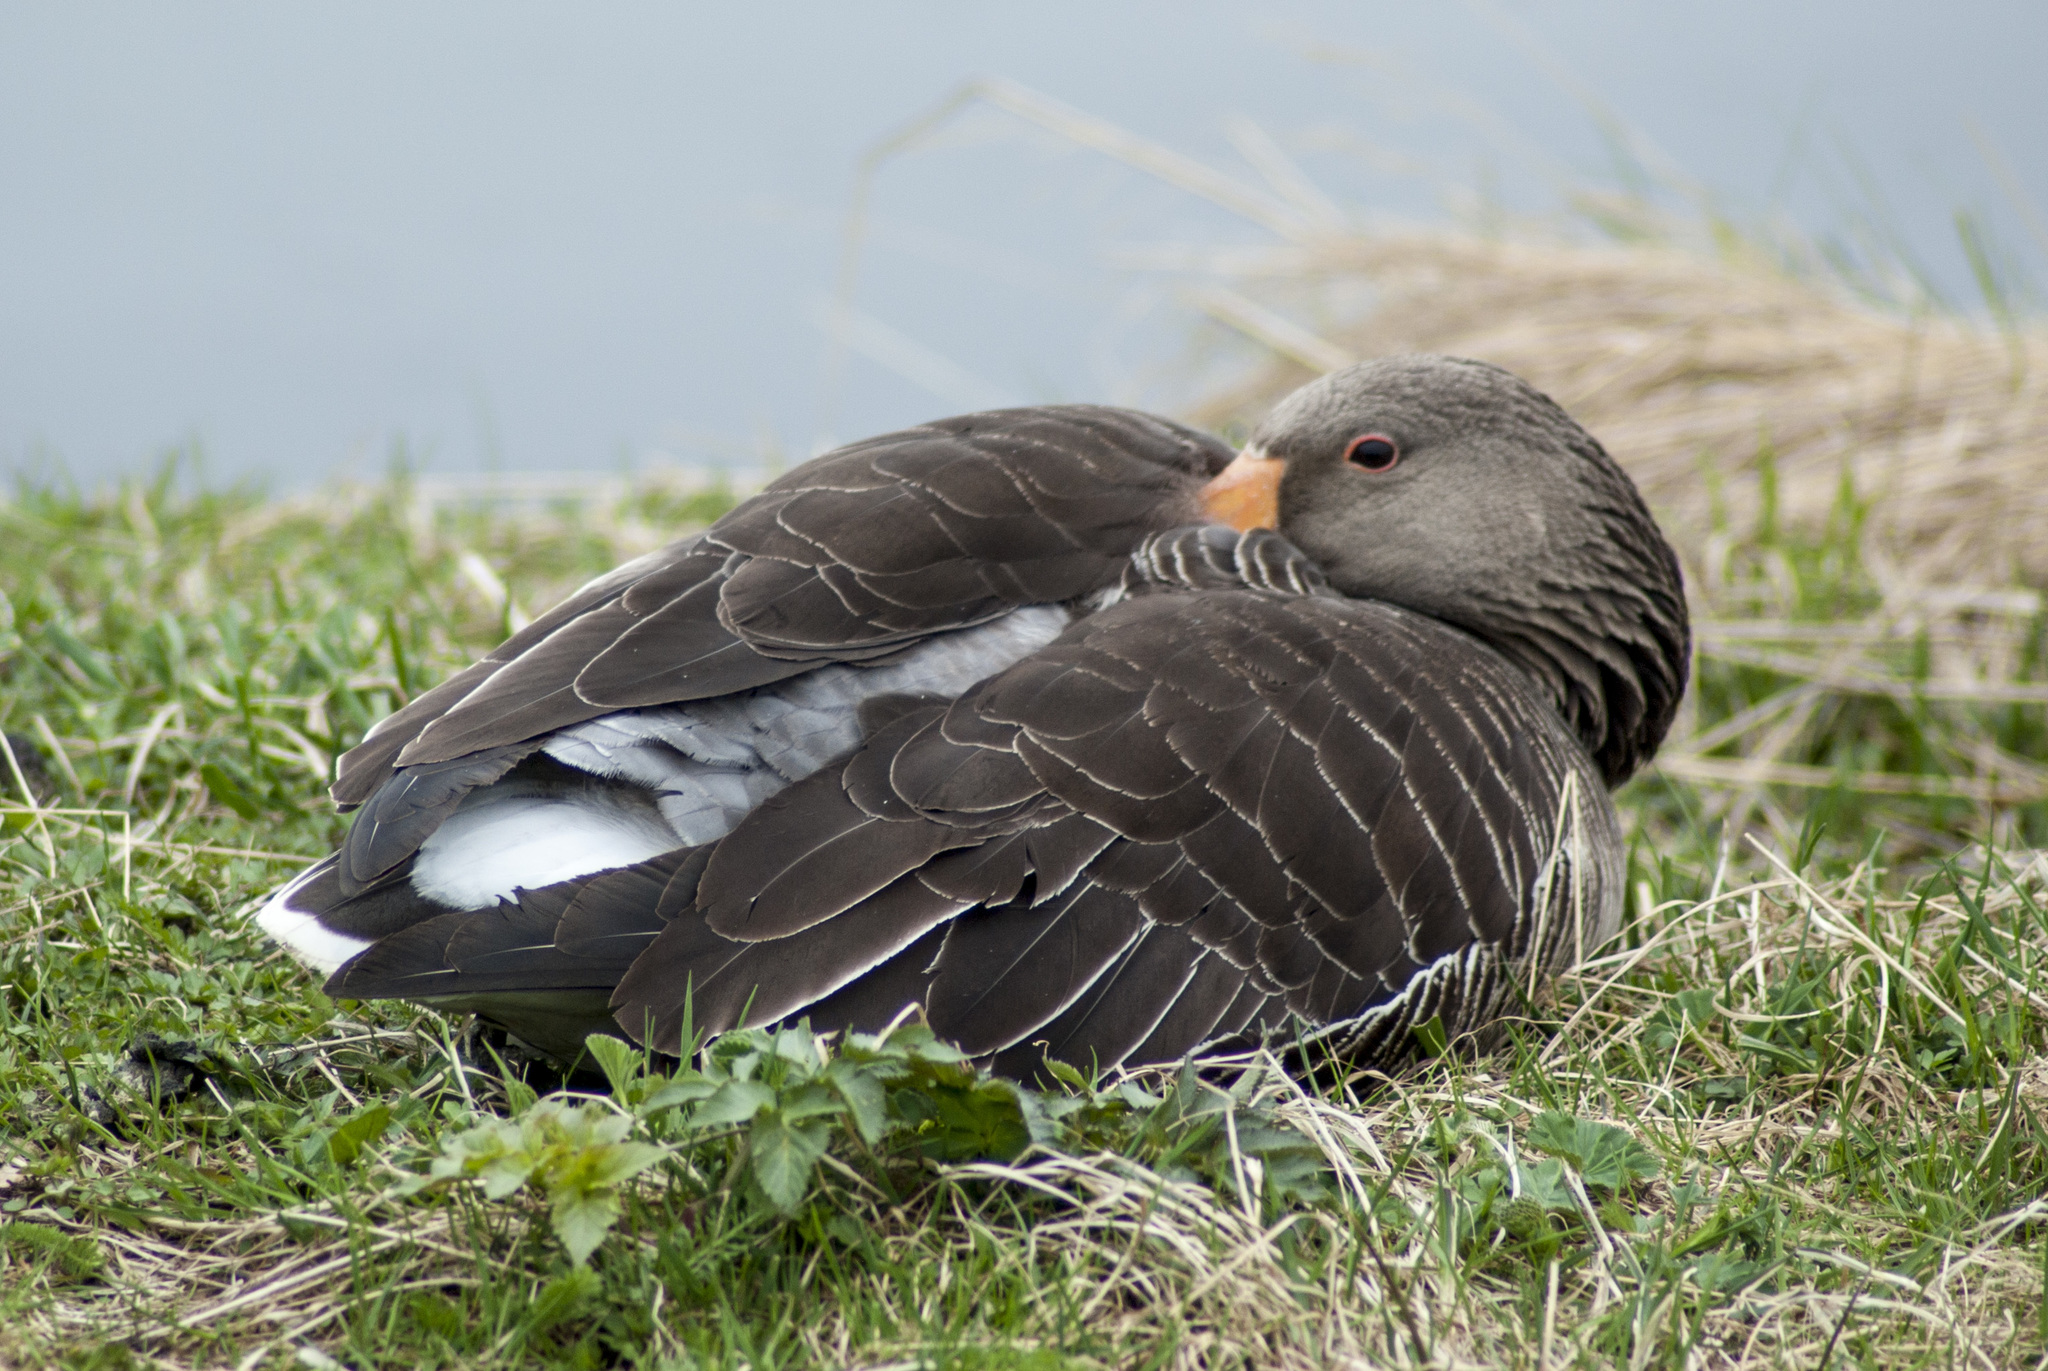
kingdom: Animalia
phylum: Chordata
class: Aves
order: Anseriformes
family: Anatidae
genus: Anser
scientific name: Anser anser
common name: Greylag goose
